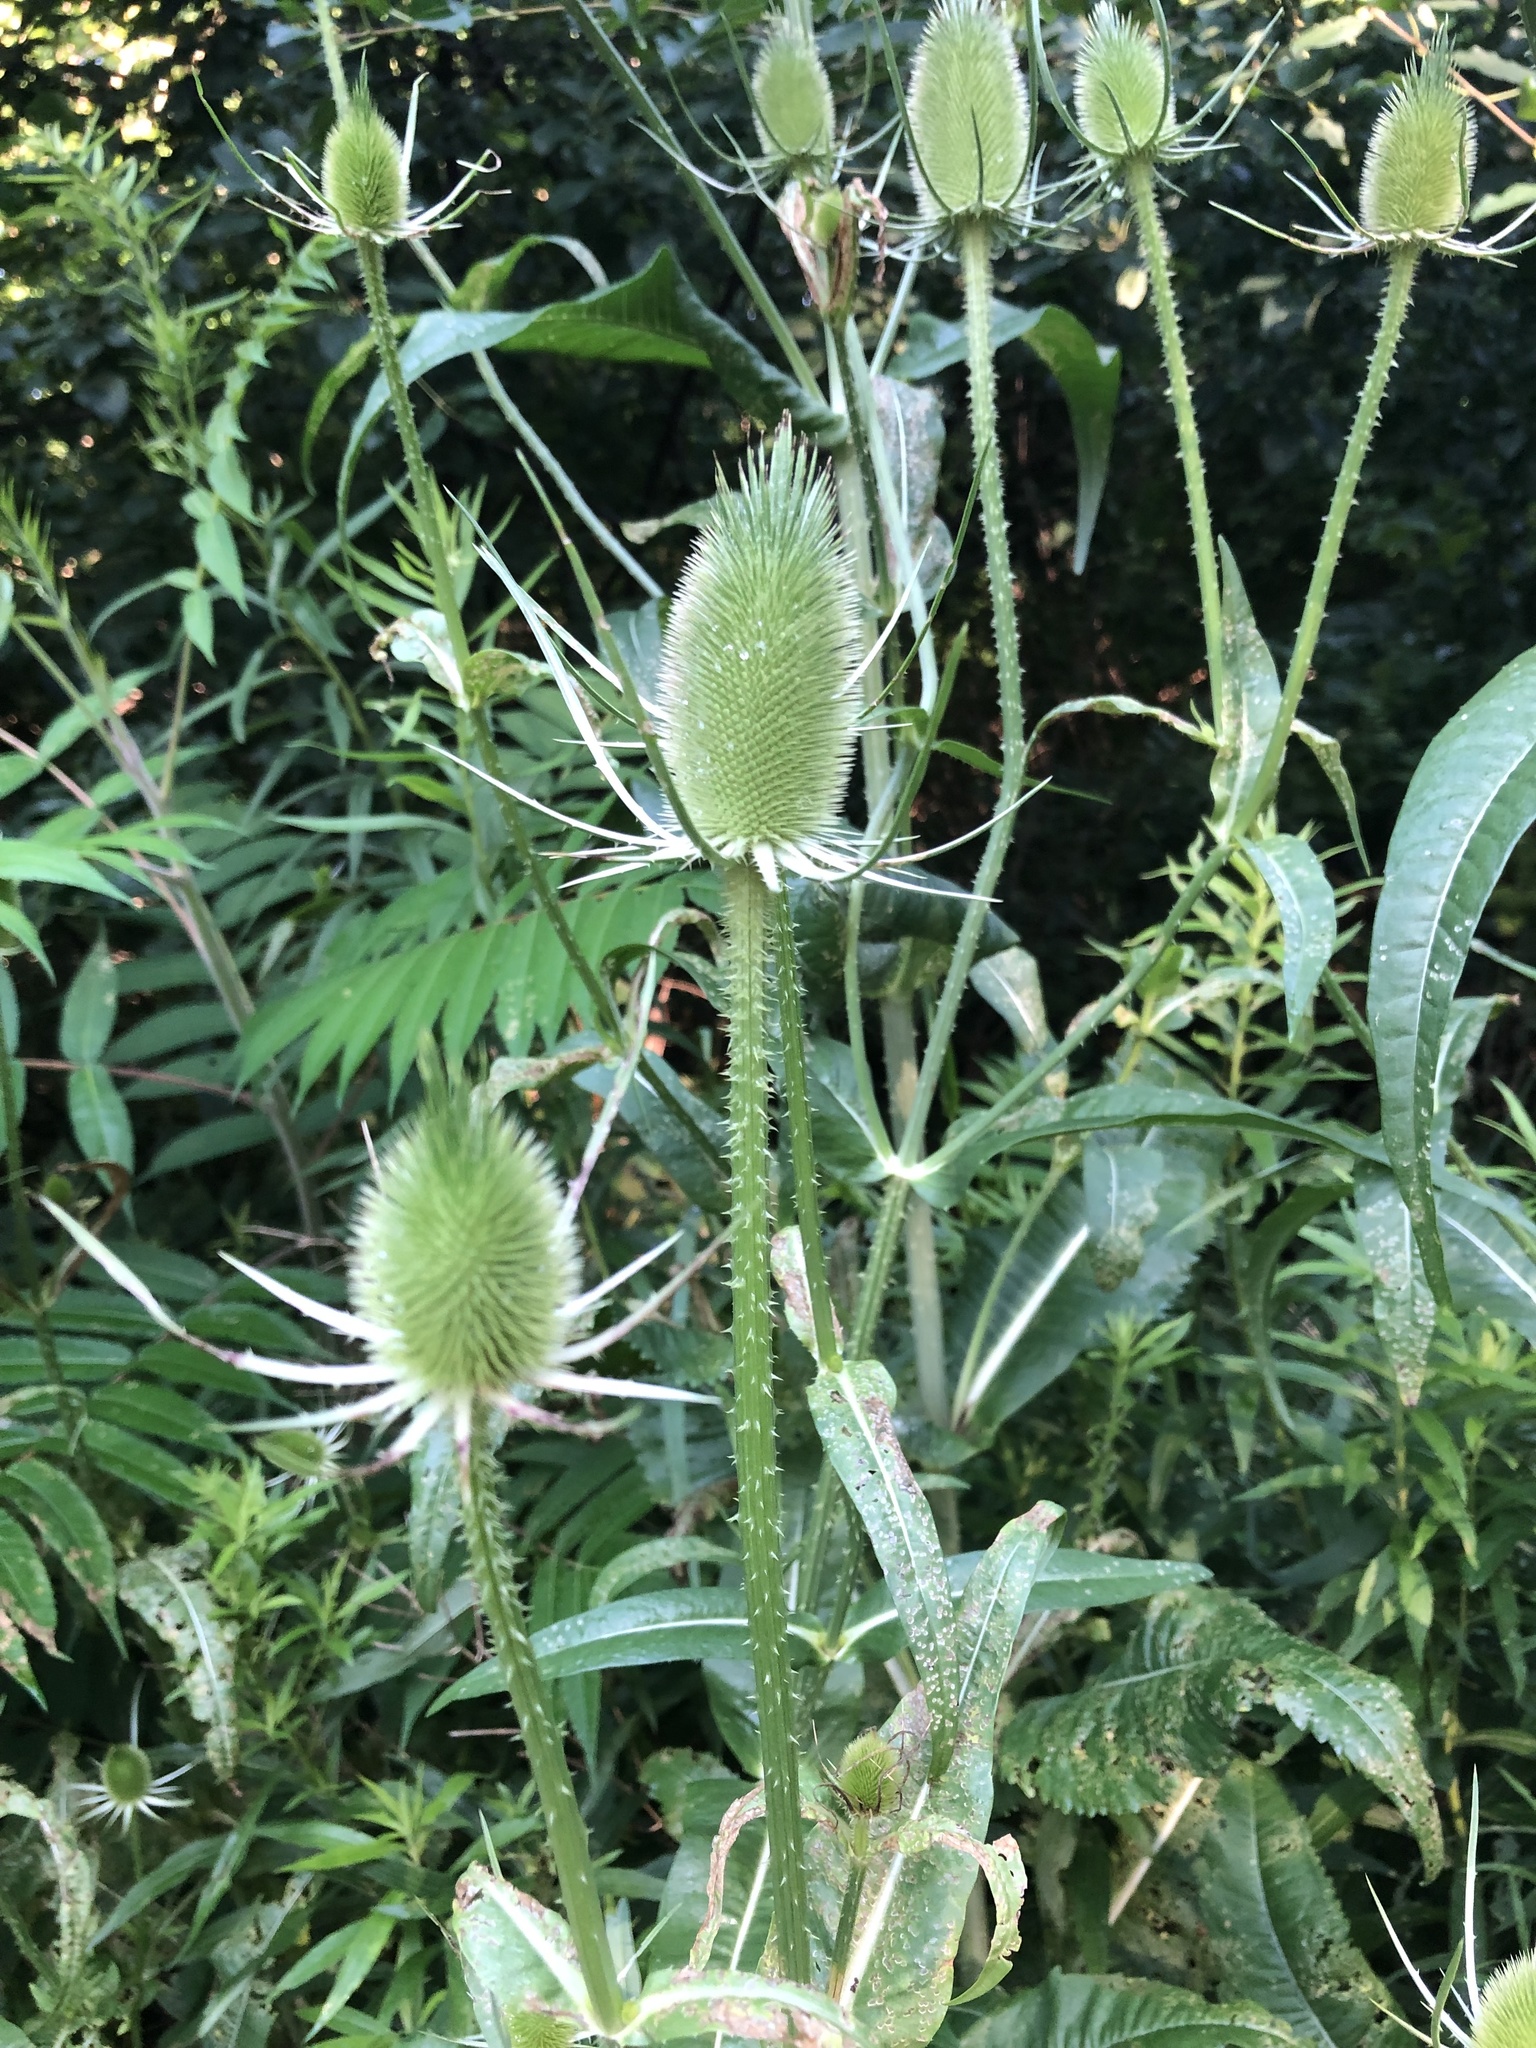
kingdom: Plantae
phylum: Tracheophyta
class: Magnoliopsida
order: Dipsacales
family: Caprifoliaceae
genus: Dipsacus
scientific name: Dipsacus fullonum
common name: Teasel
